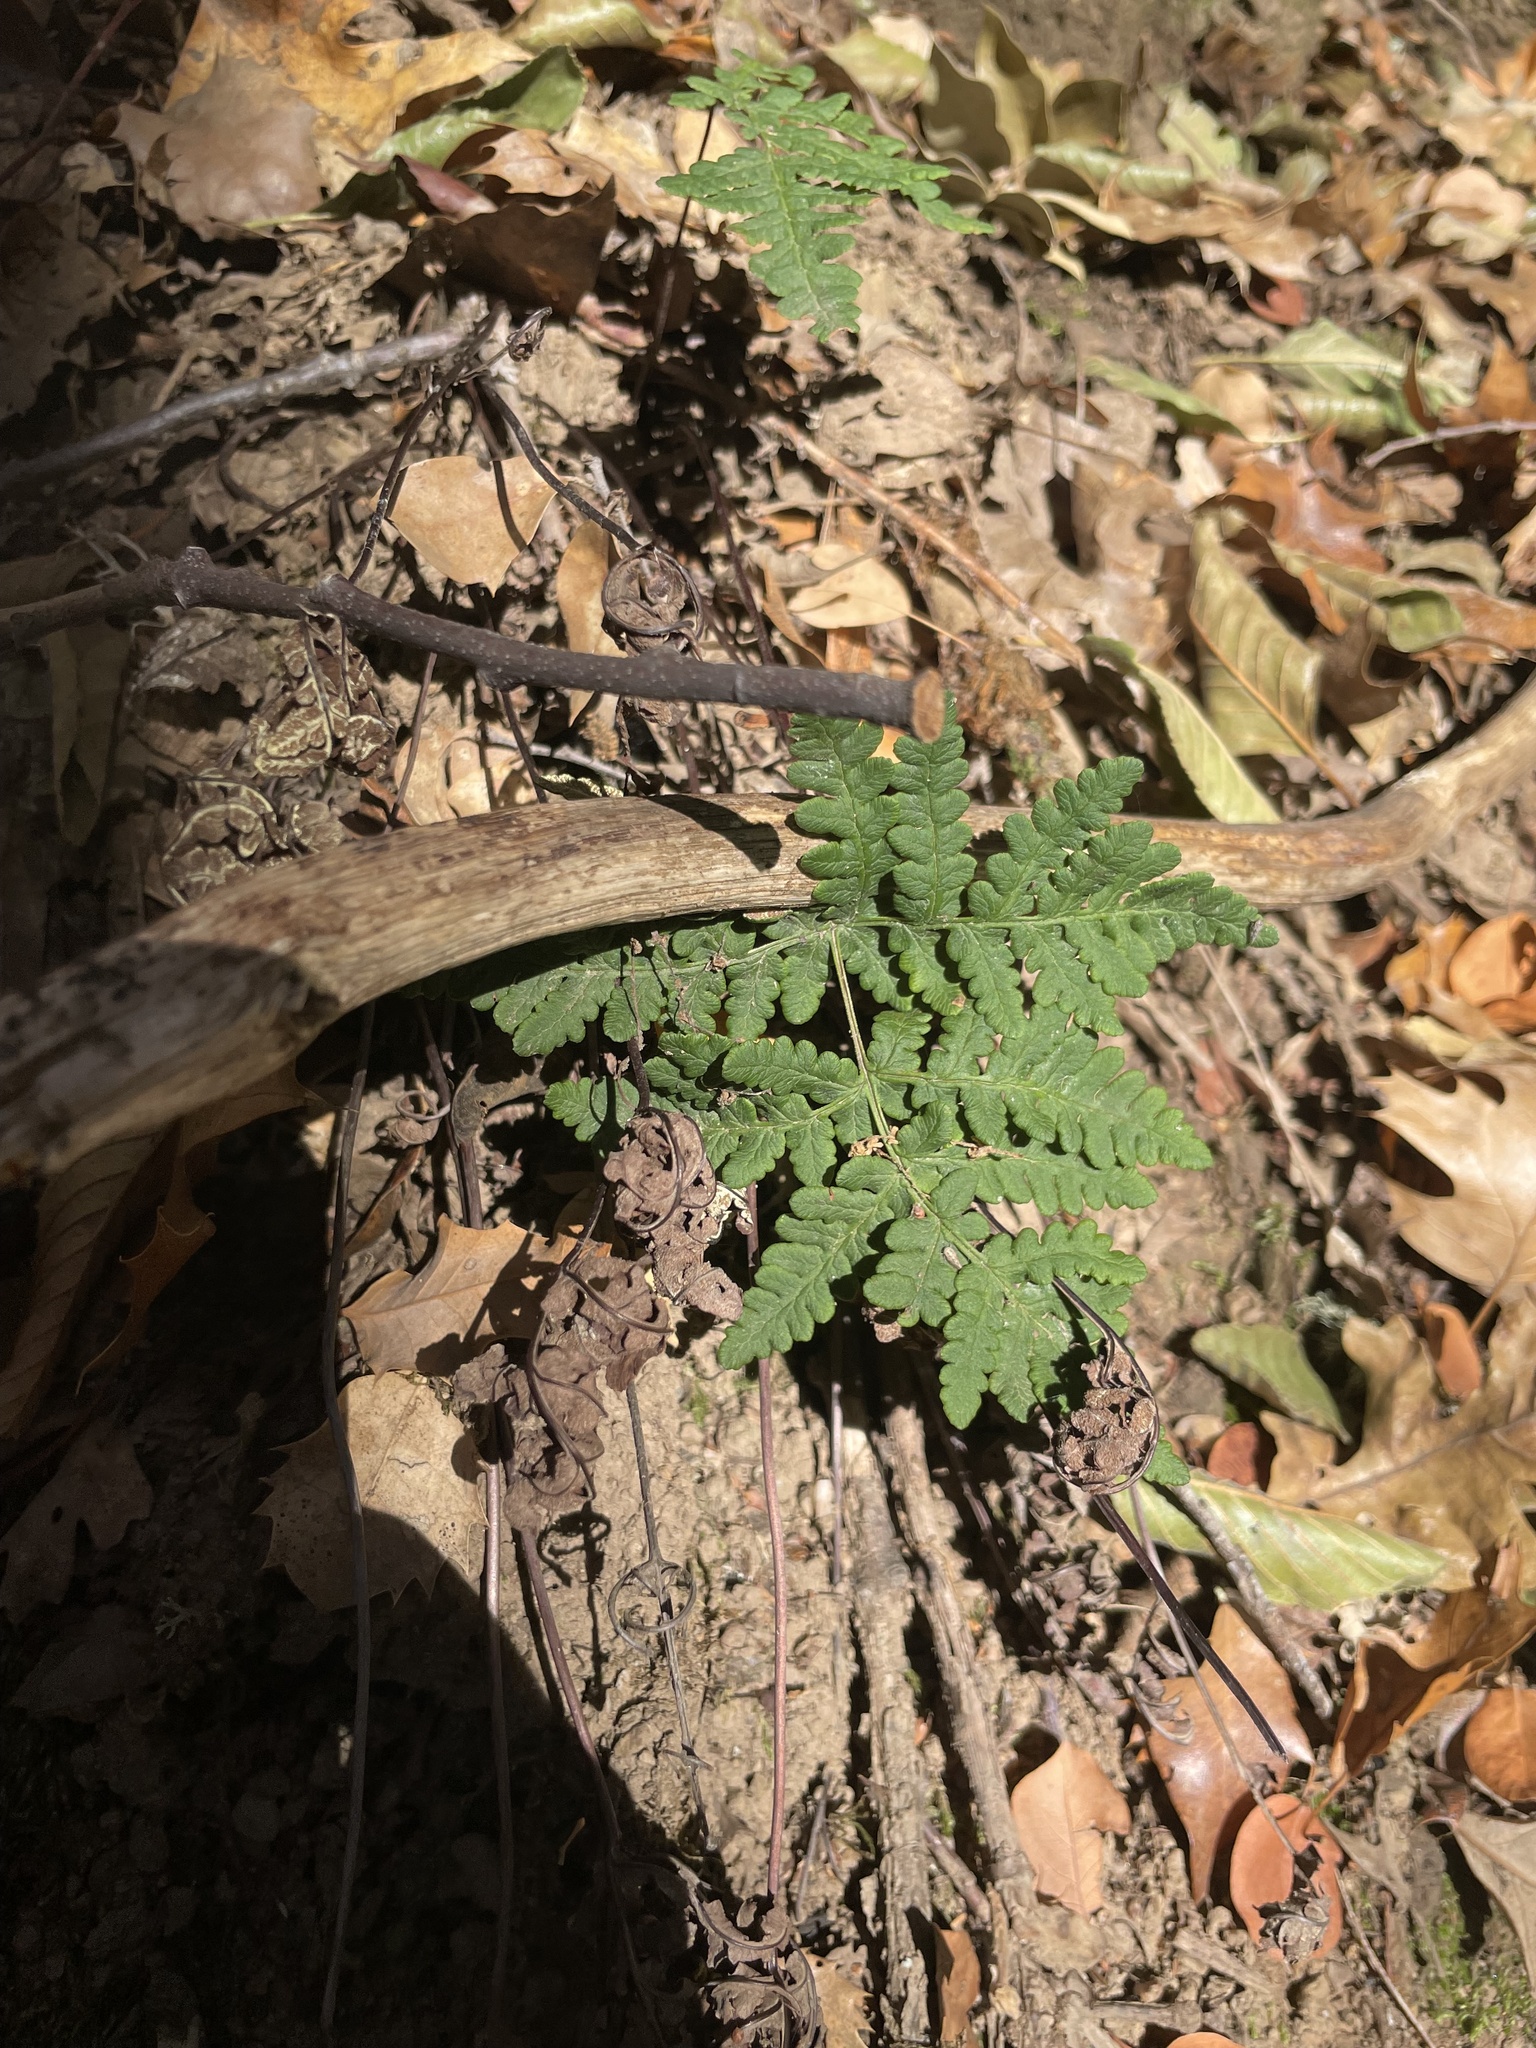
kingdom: Plantae
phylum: Tracheophyta
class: Polypodiopsida
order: Polypodiales
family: Pteridaceae
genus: Pentagramma
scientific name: Pentagramma triangularis
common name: Gold fern
